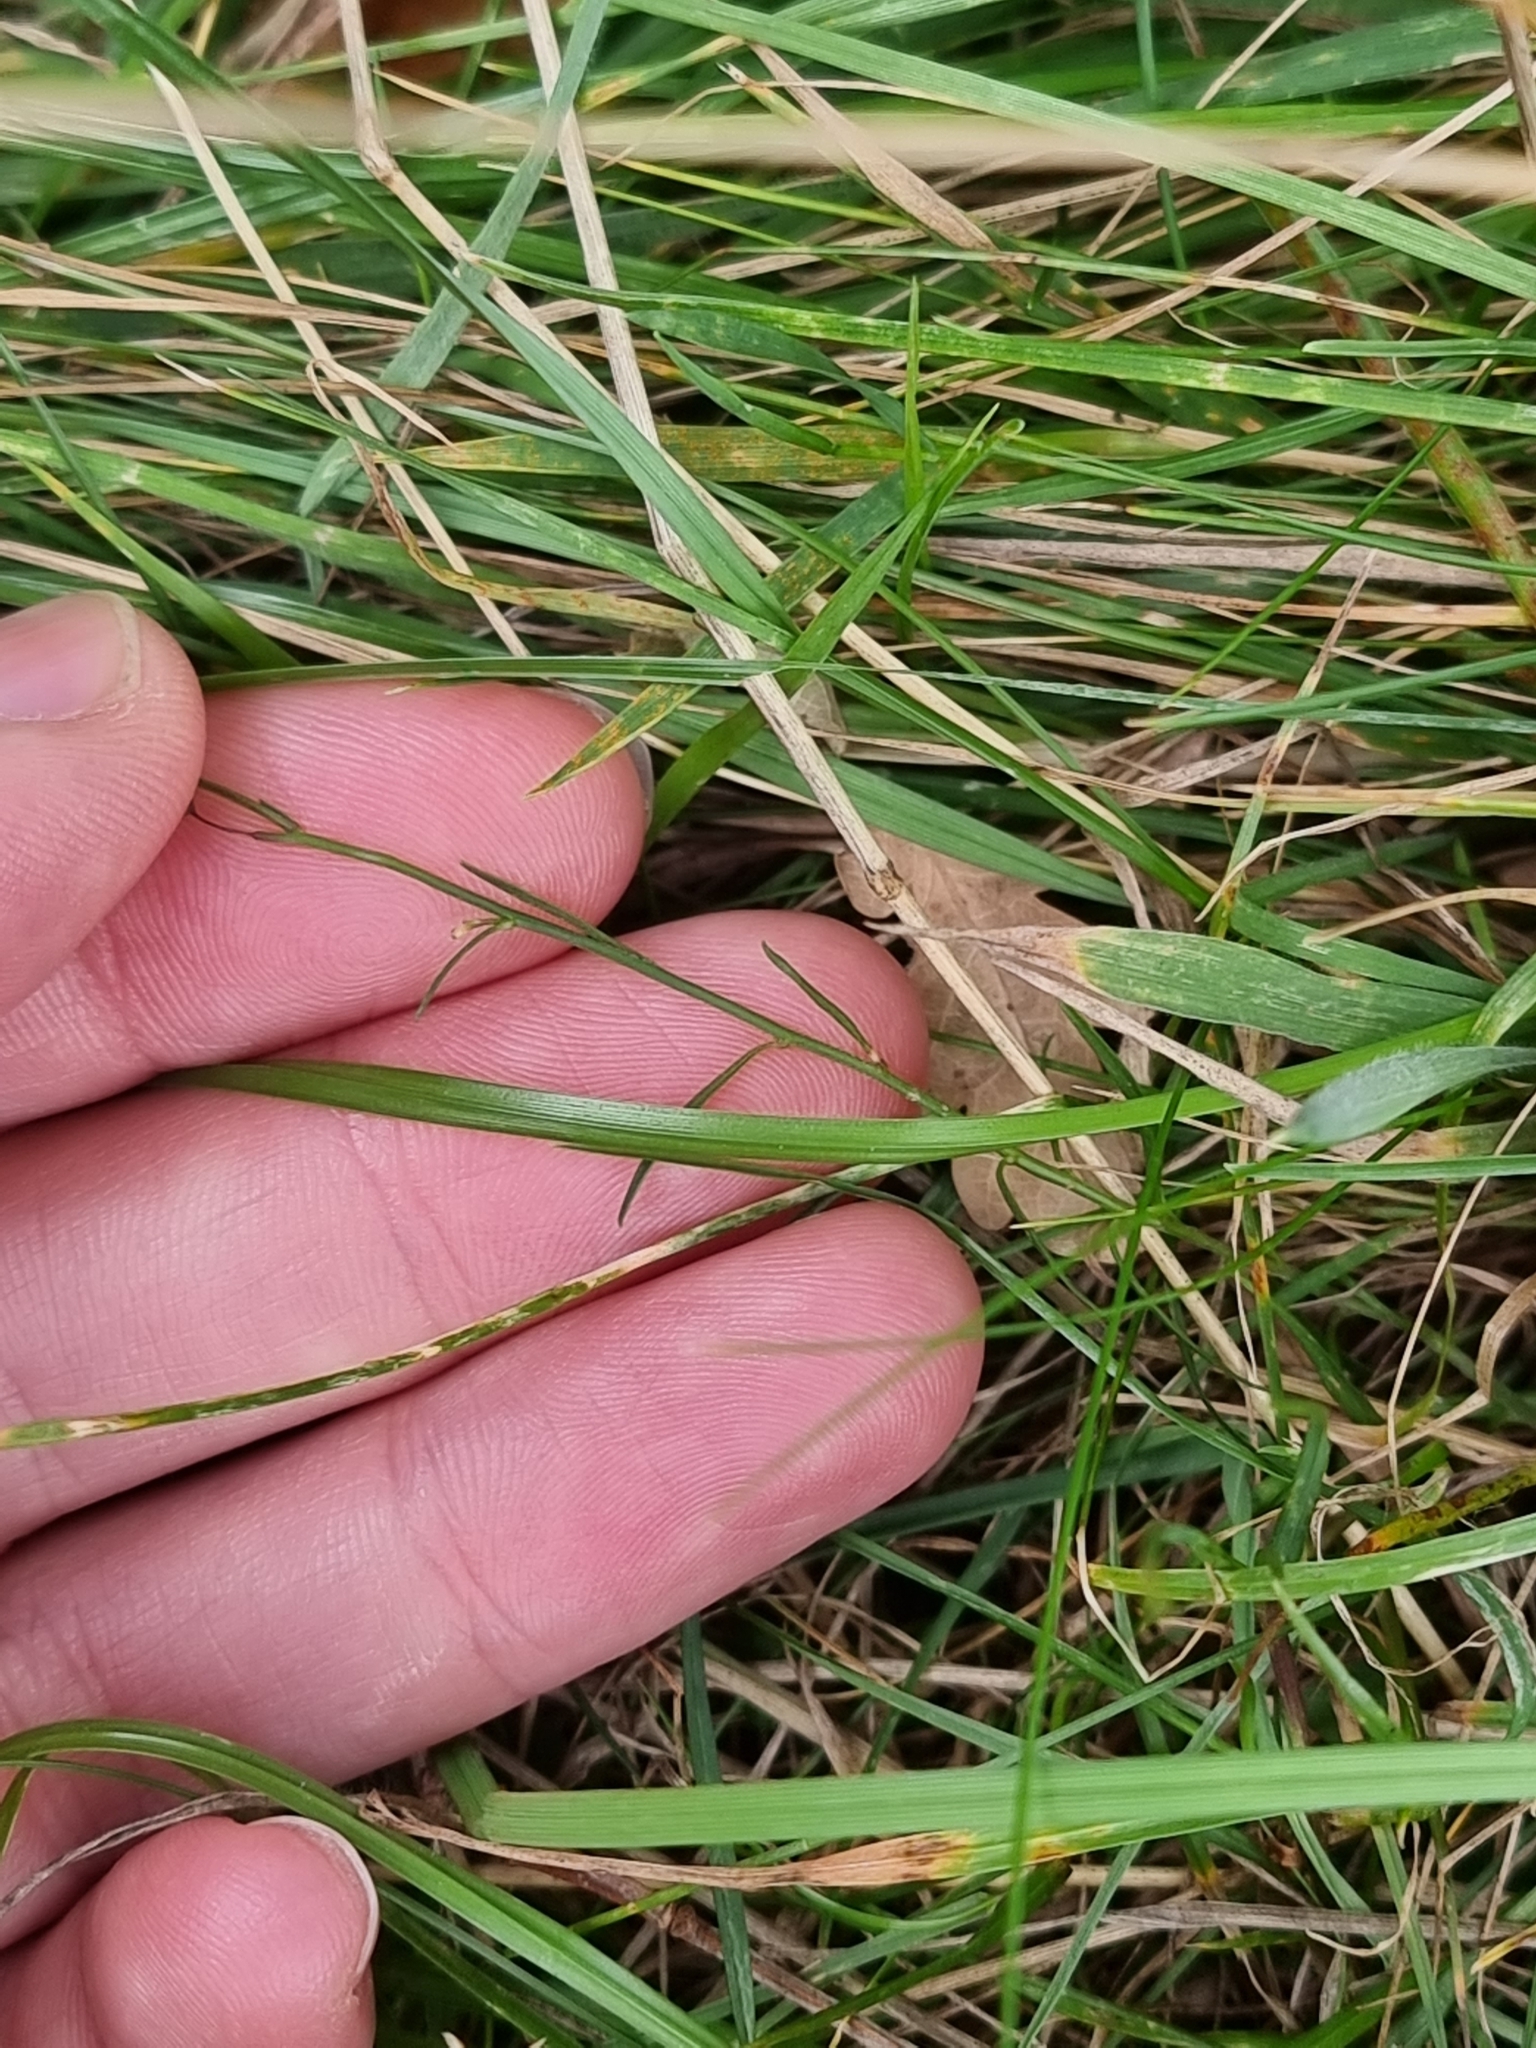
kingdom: Plantae
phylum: Tracheophyta
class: Magnoliopsida
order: Asterales
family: Campanulaceae
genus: Campanula
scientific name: Campanula rotundifolia
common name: Harebell
